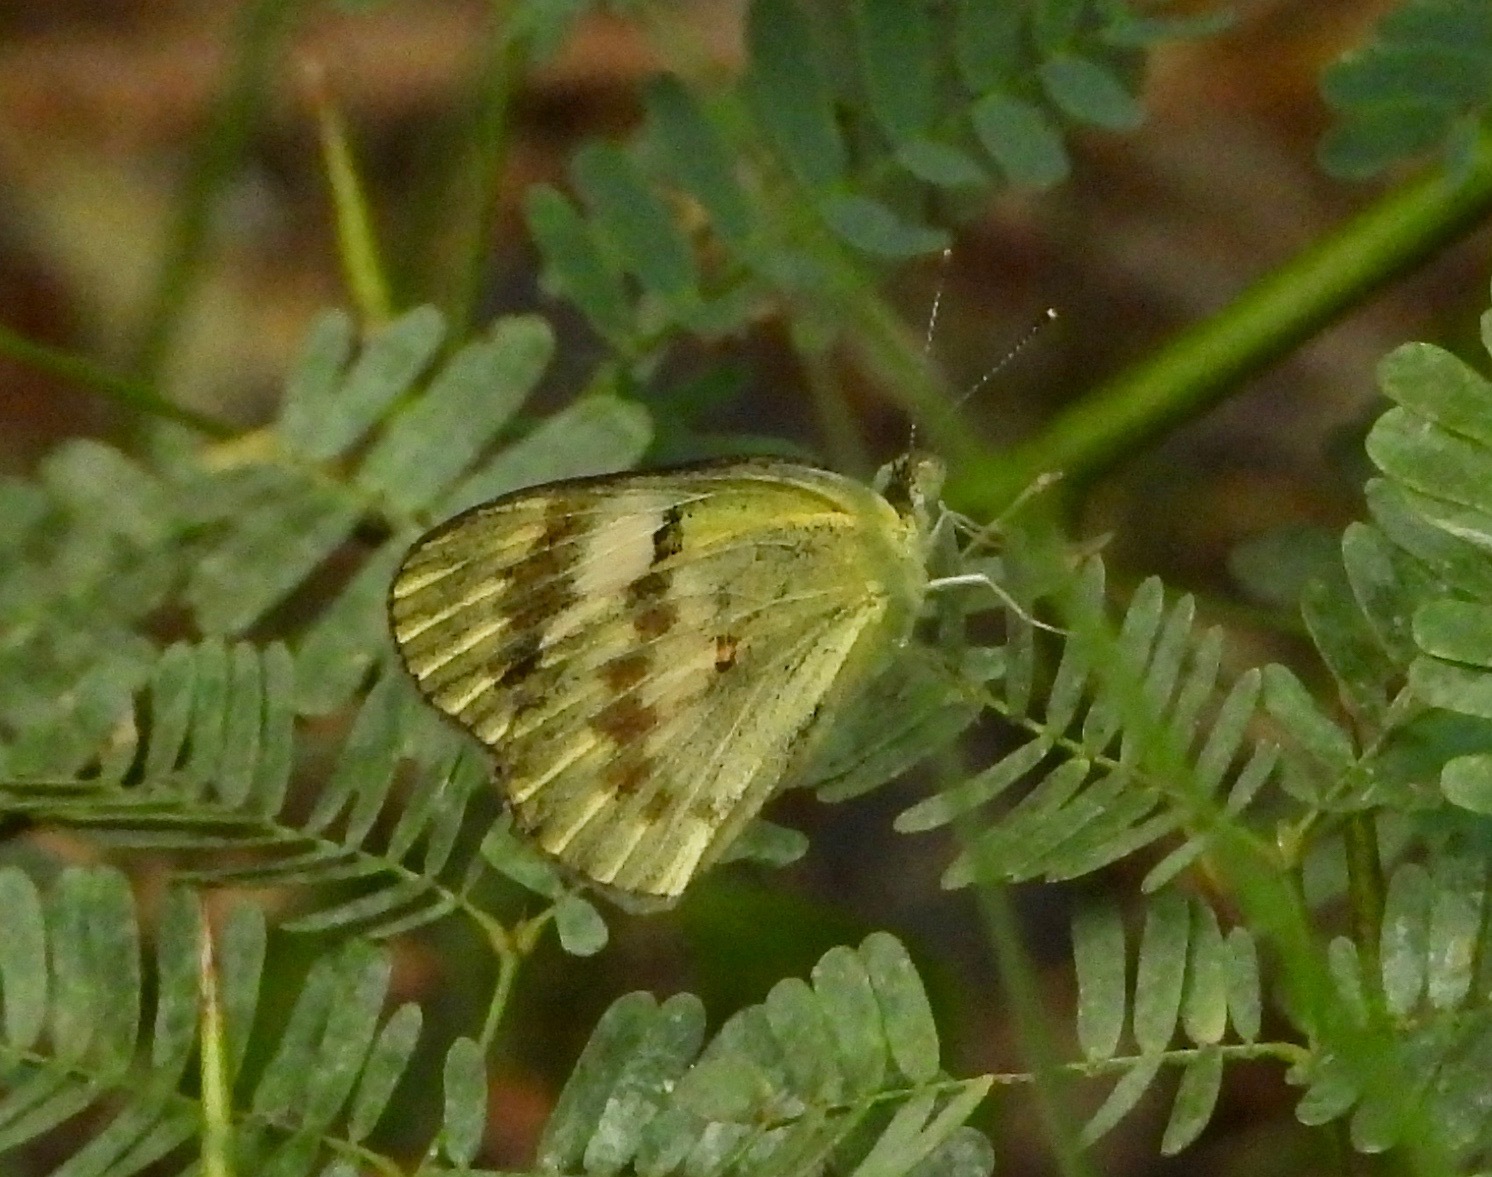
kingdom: Animalia
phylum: Arthropoda
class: Insecta
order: Lepidoptera
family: Pieridae
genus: Colotis
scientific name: Colotis fausta
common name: Large salmon arab
